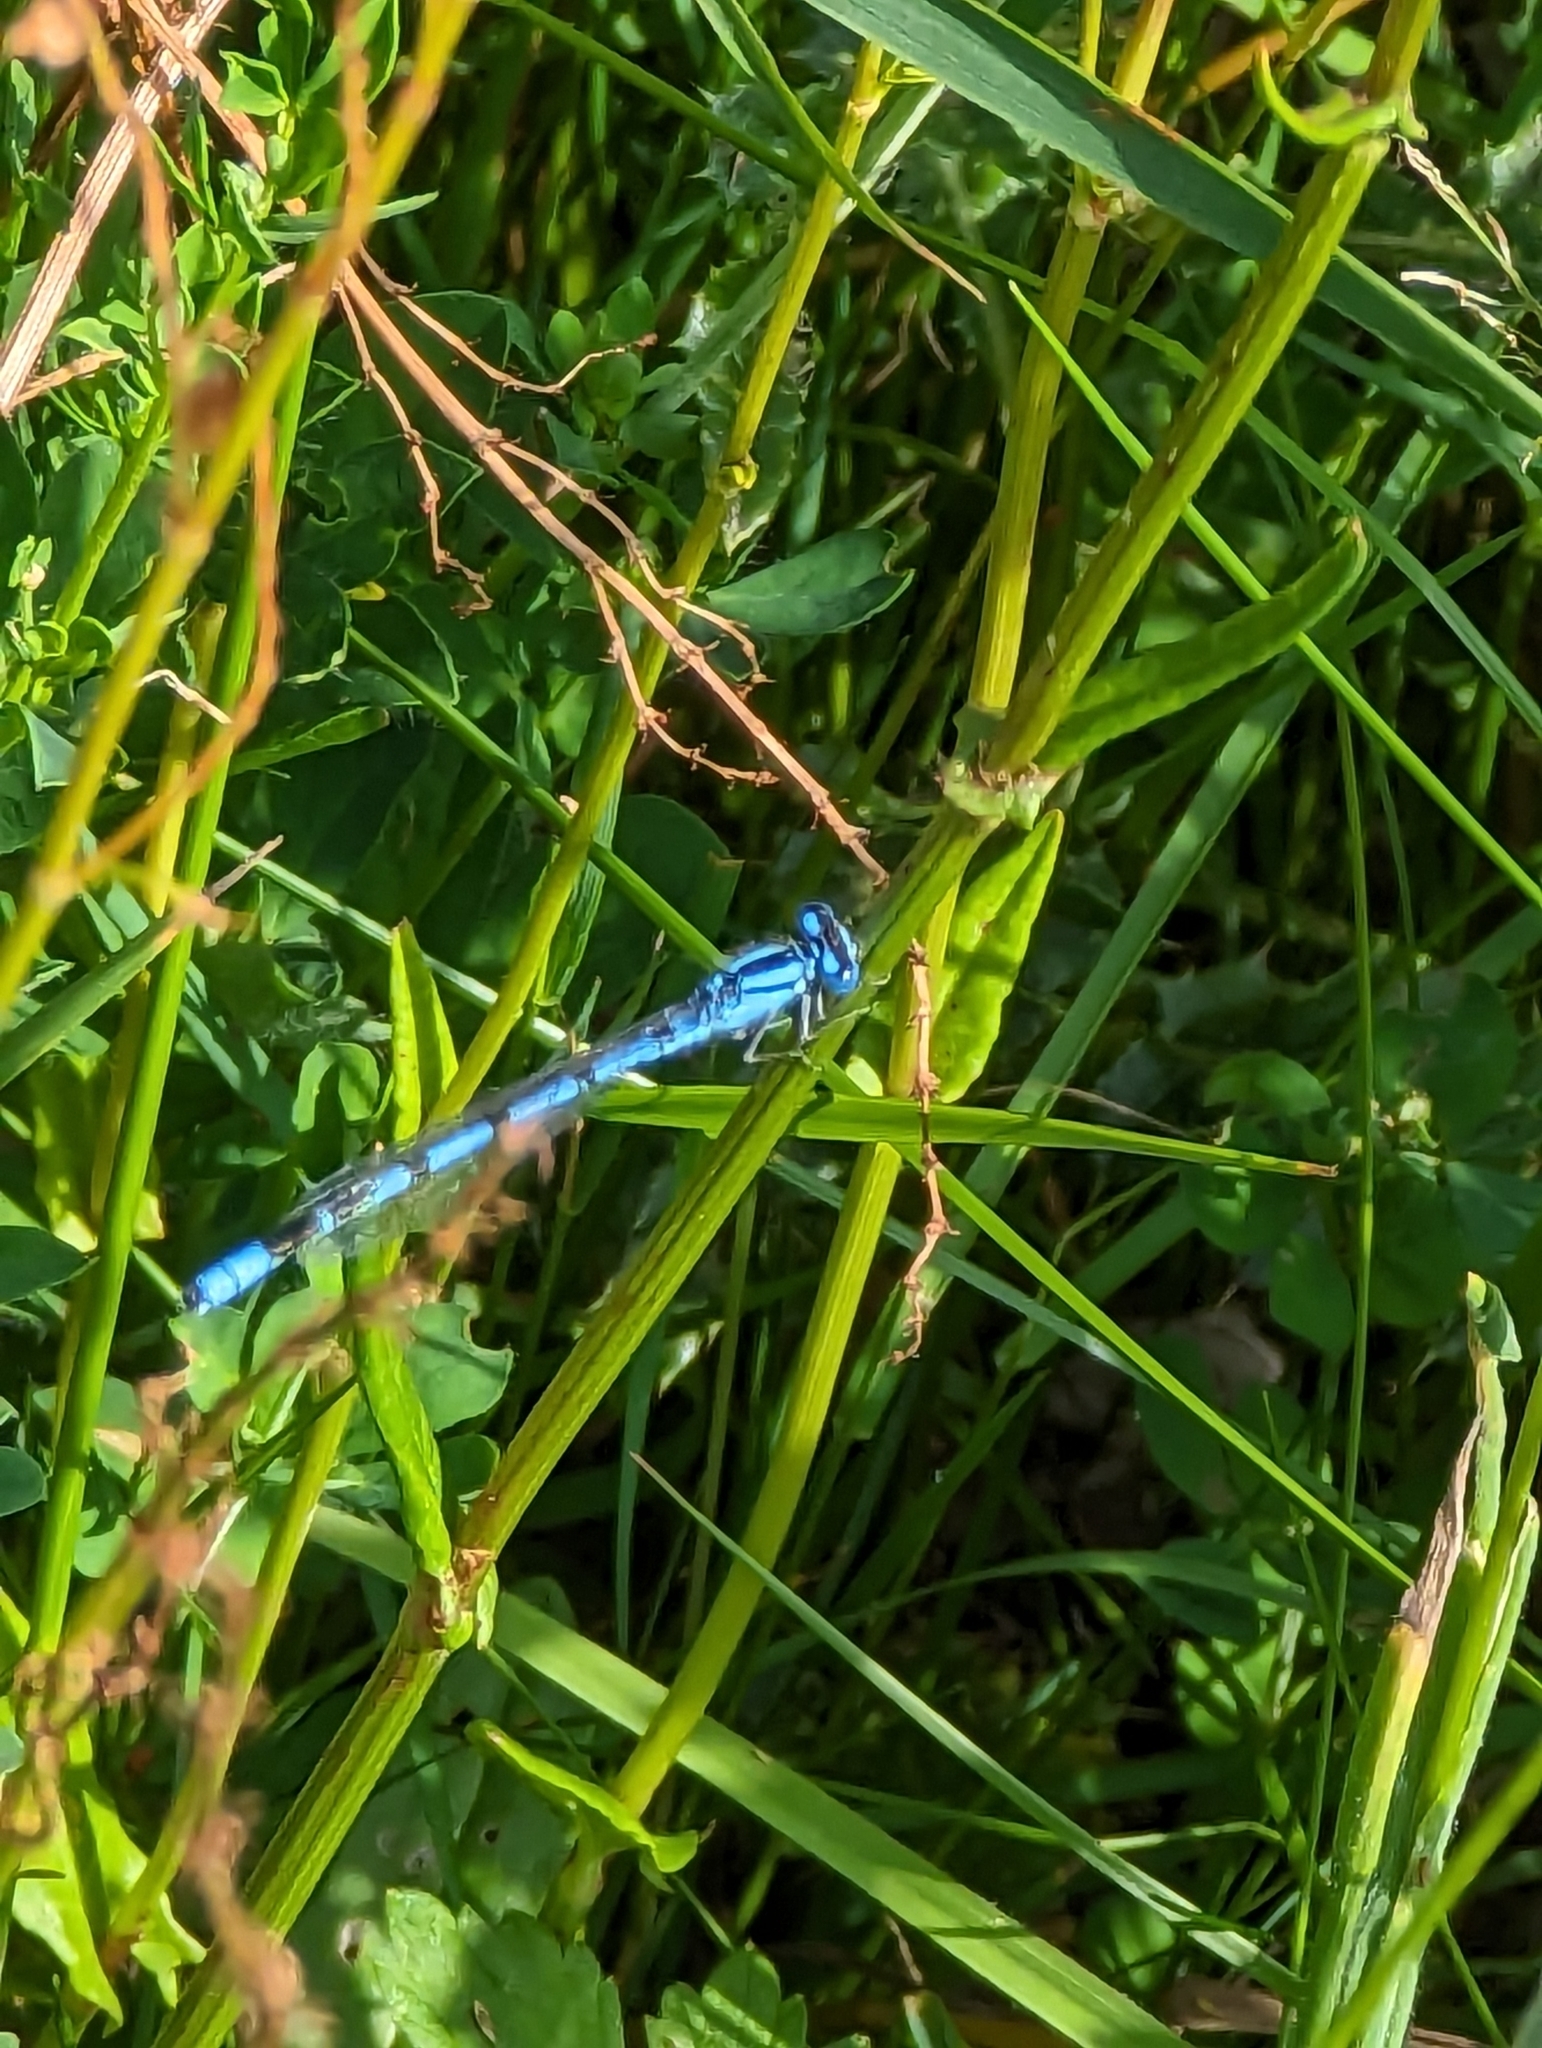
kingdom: Animalia
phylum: Arthropoda
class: Insecta
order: Odonata
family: Coenagrionidae
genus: Enallagma
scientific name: Enallagma cyathigerum
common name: Common blue damselfly
